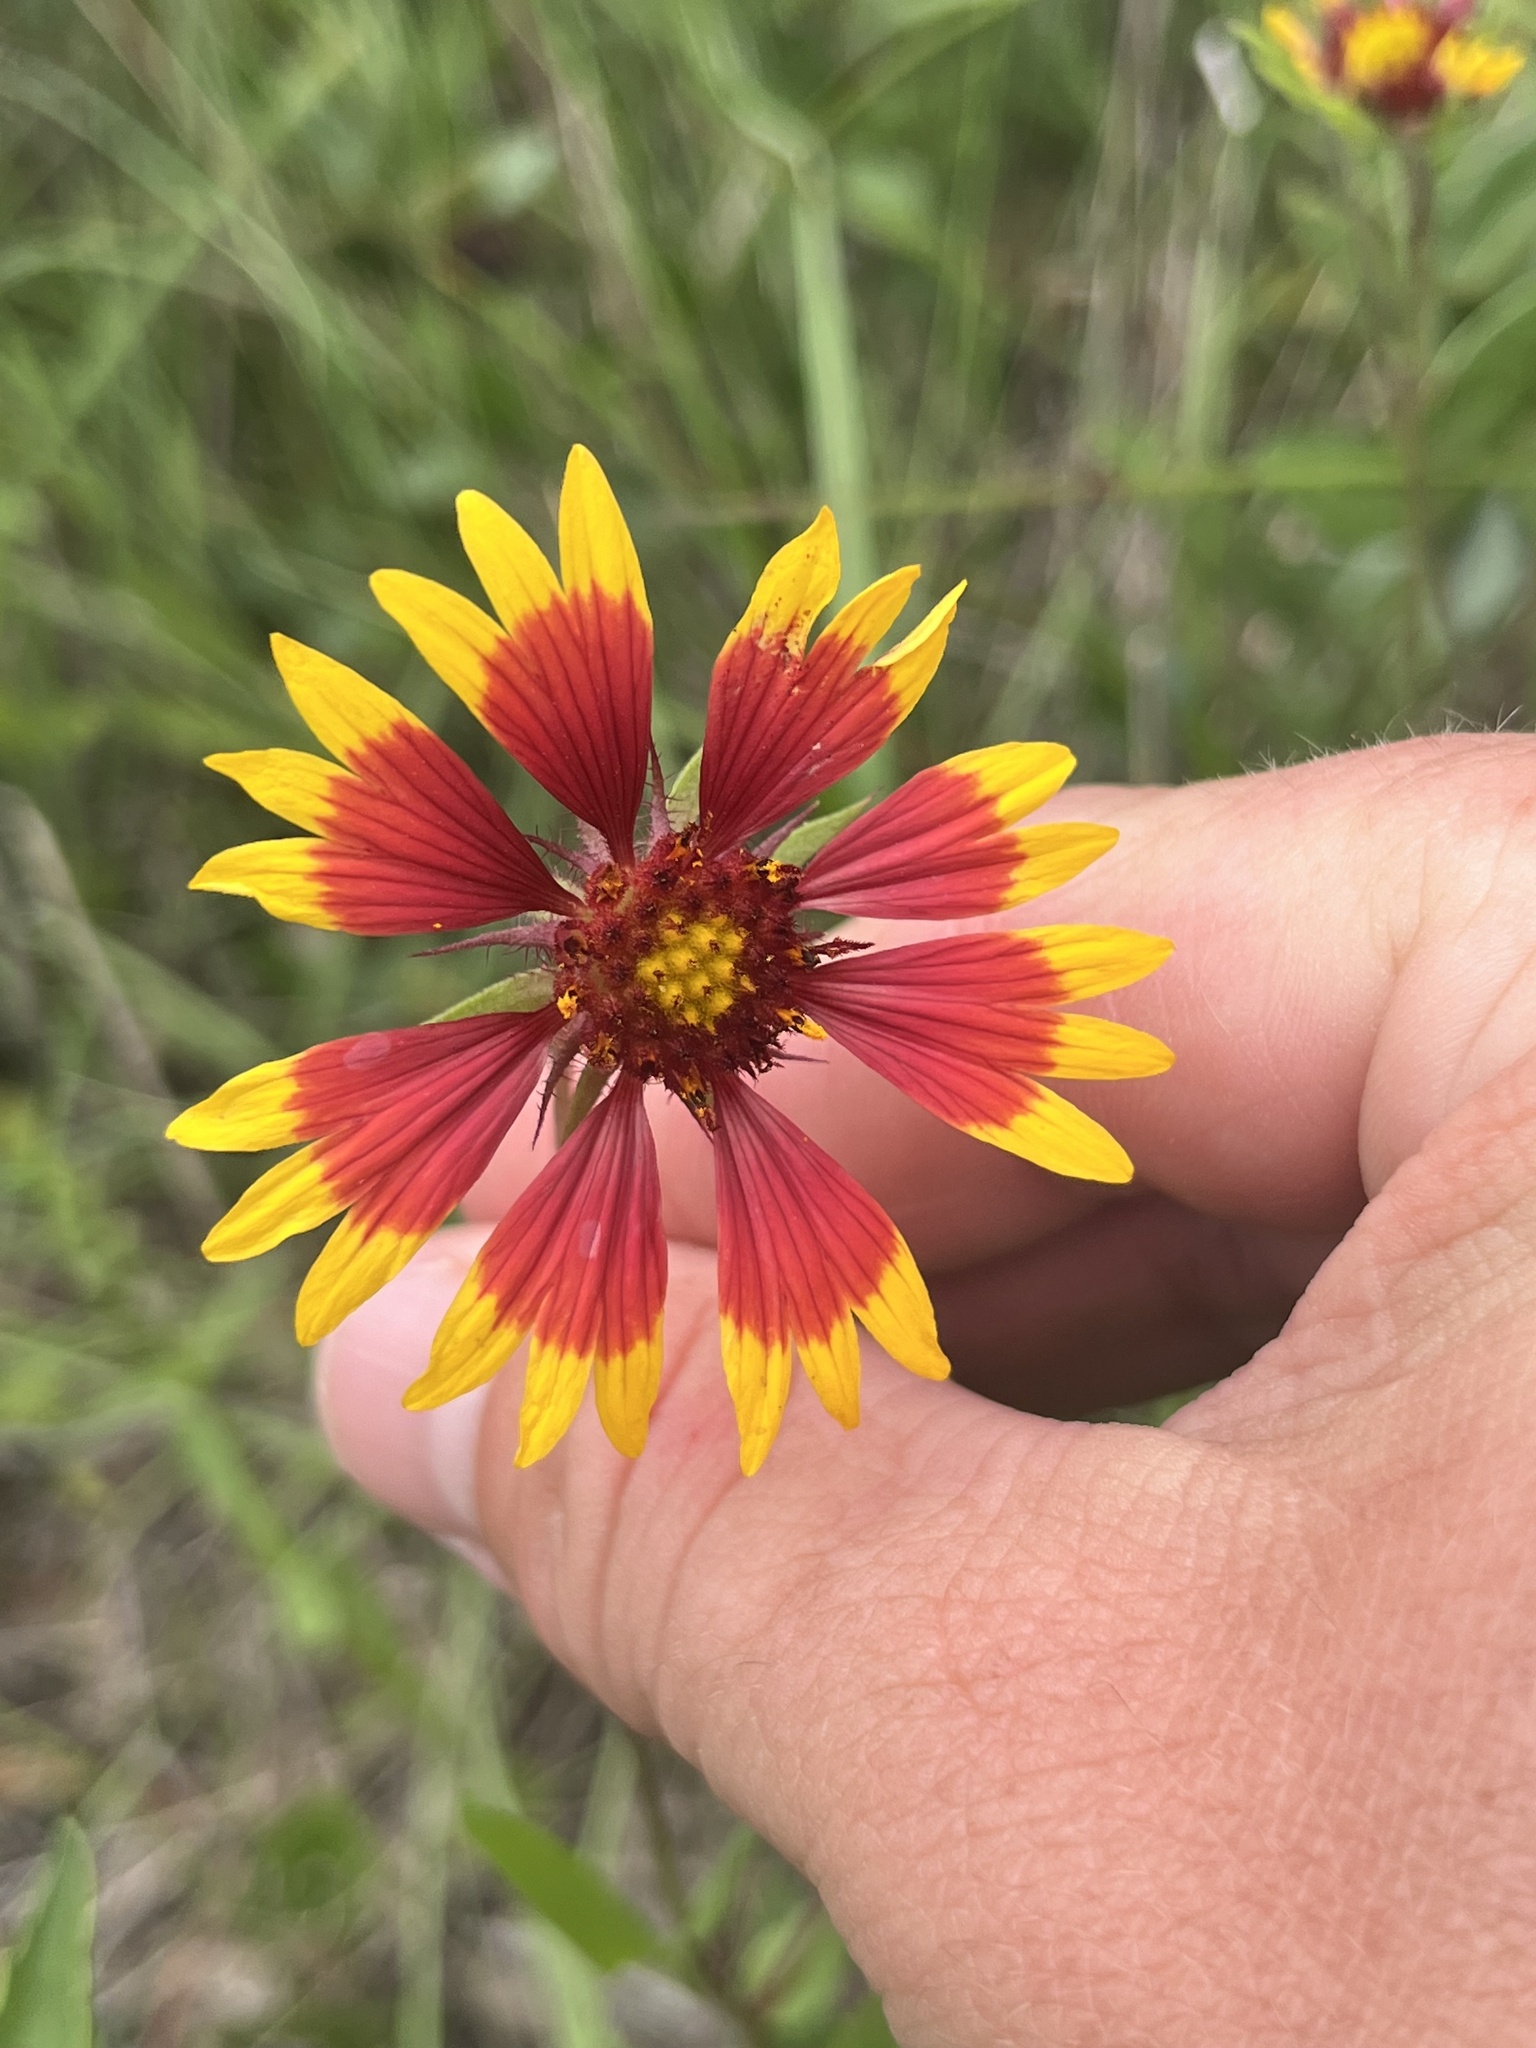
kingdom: Plantae
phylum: Tracheophyta
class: Magnoliopsida
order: Asterales
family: Asteraceae
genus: Gaillardia
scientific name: Gaillardia pulchella
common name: Firewheel
